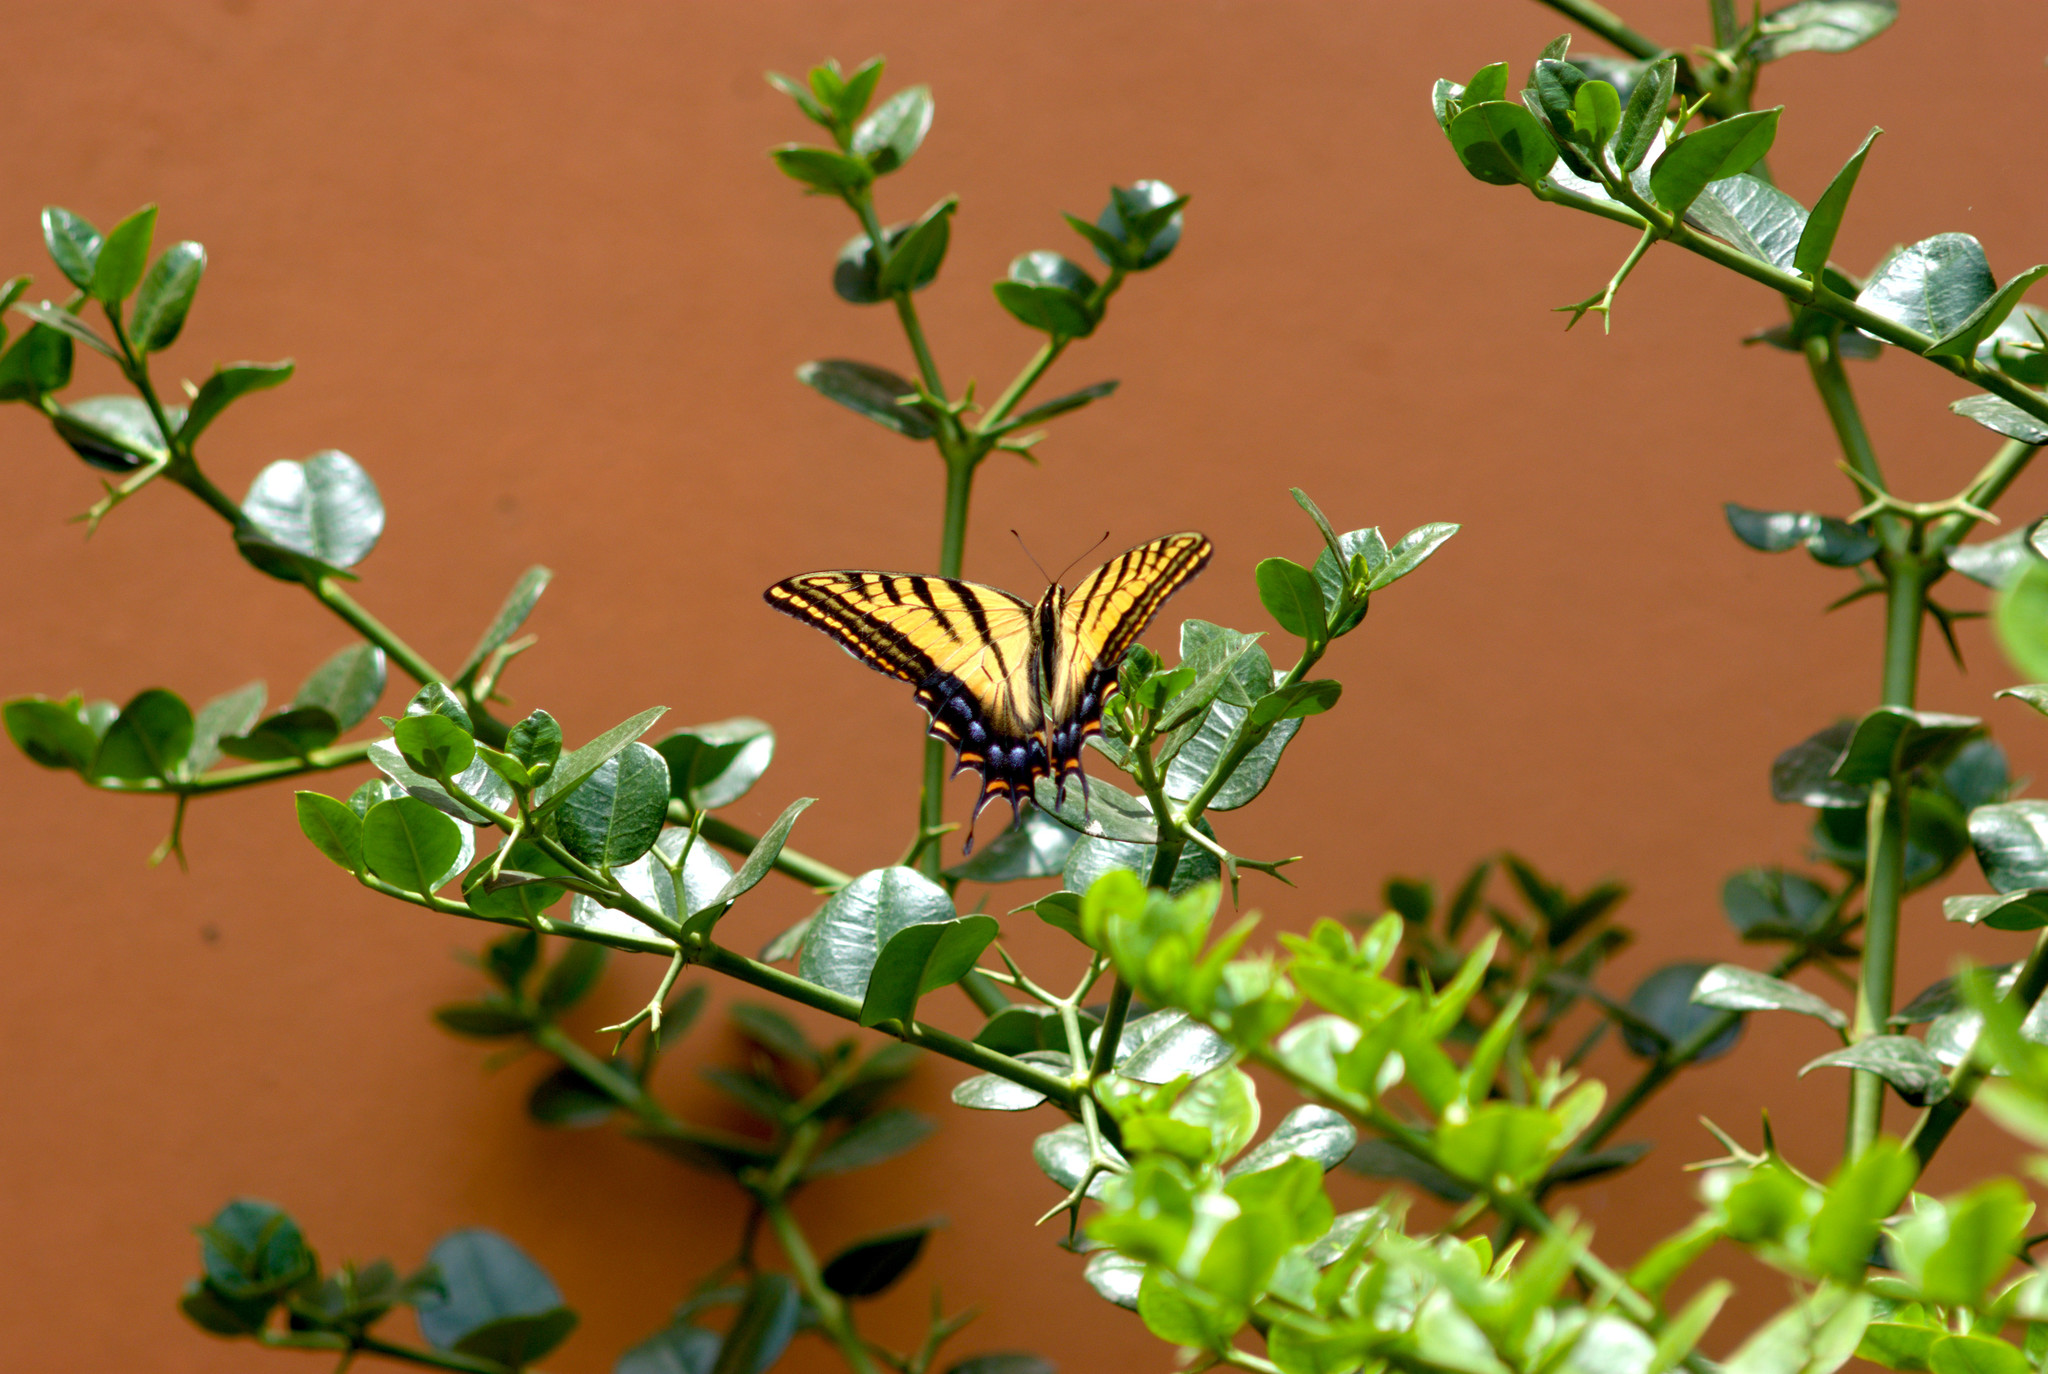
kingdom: Animalia
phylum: Arthropoda
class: Insecta
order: Lepidoptera
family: Papilionidae
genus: Papilio
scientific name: Papilio multicaudata
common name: Two-tailed tiger swallowtail
